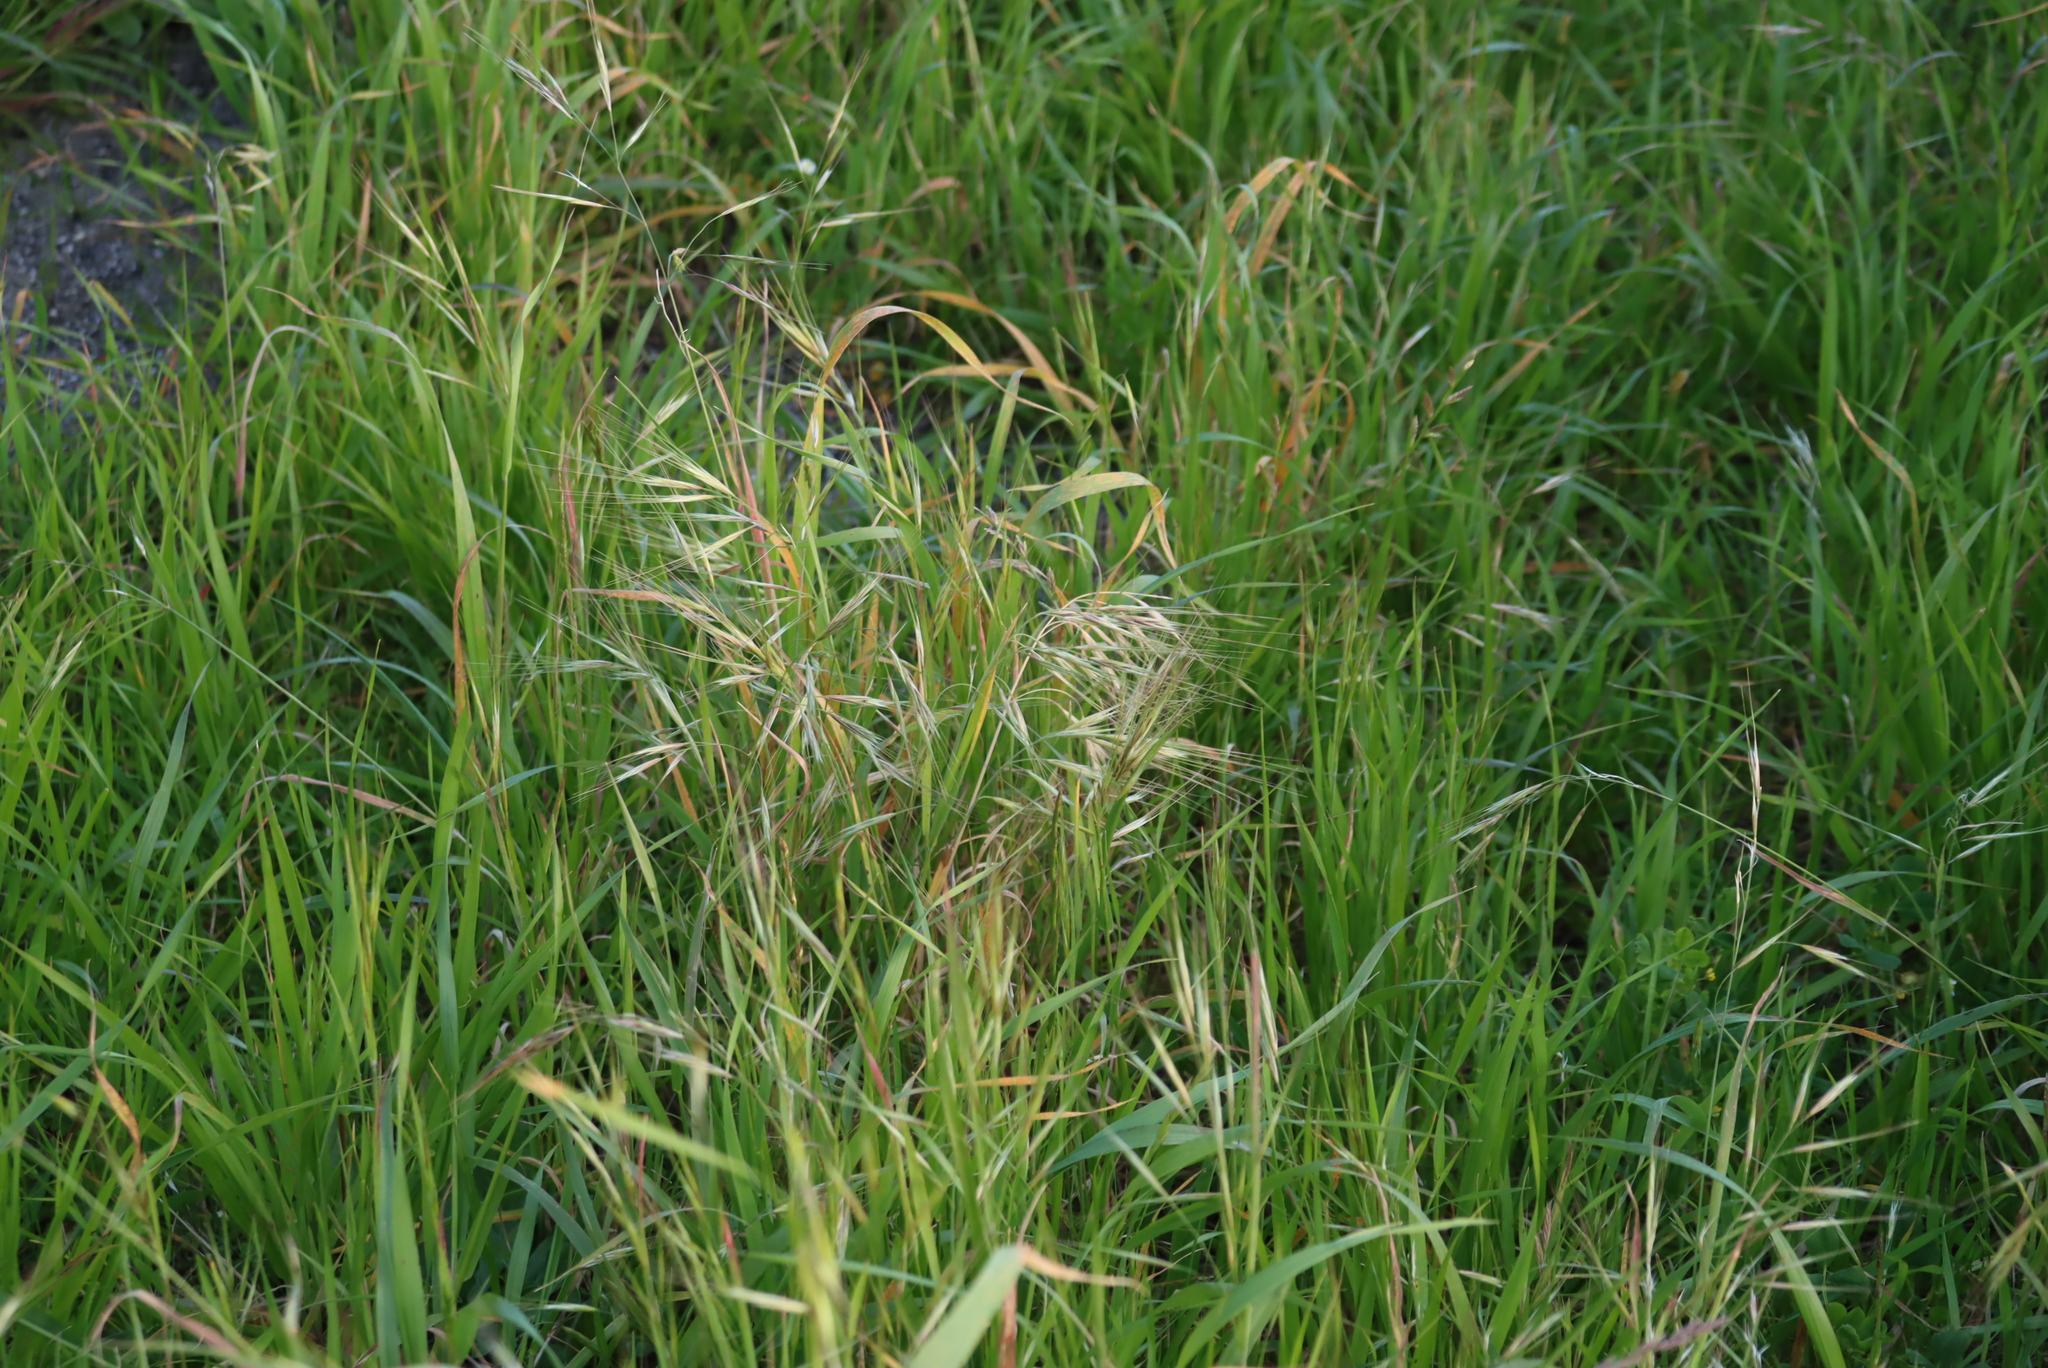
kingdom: Plantae
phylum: Tracheophyta
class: Liliopsida
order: Poales
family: Poaceae
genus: Bromus
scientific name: Bromus diandrus
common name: Ripgut brome
